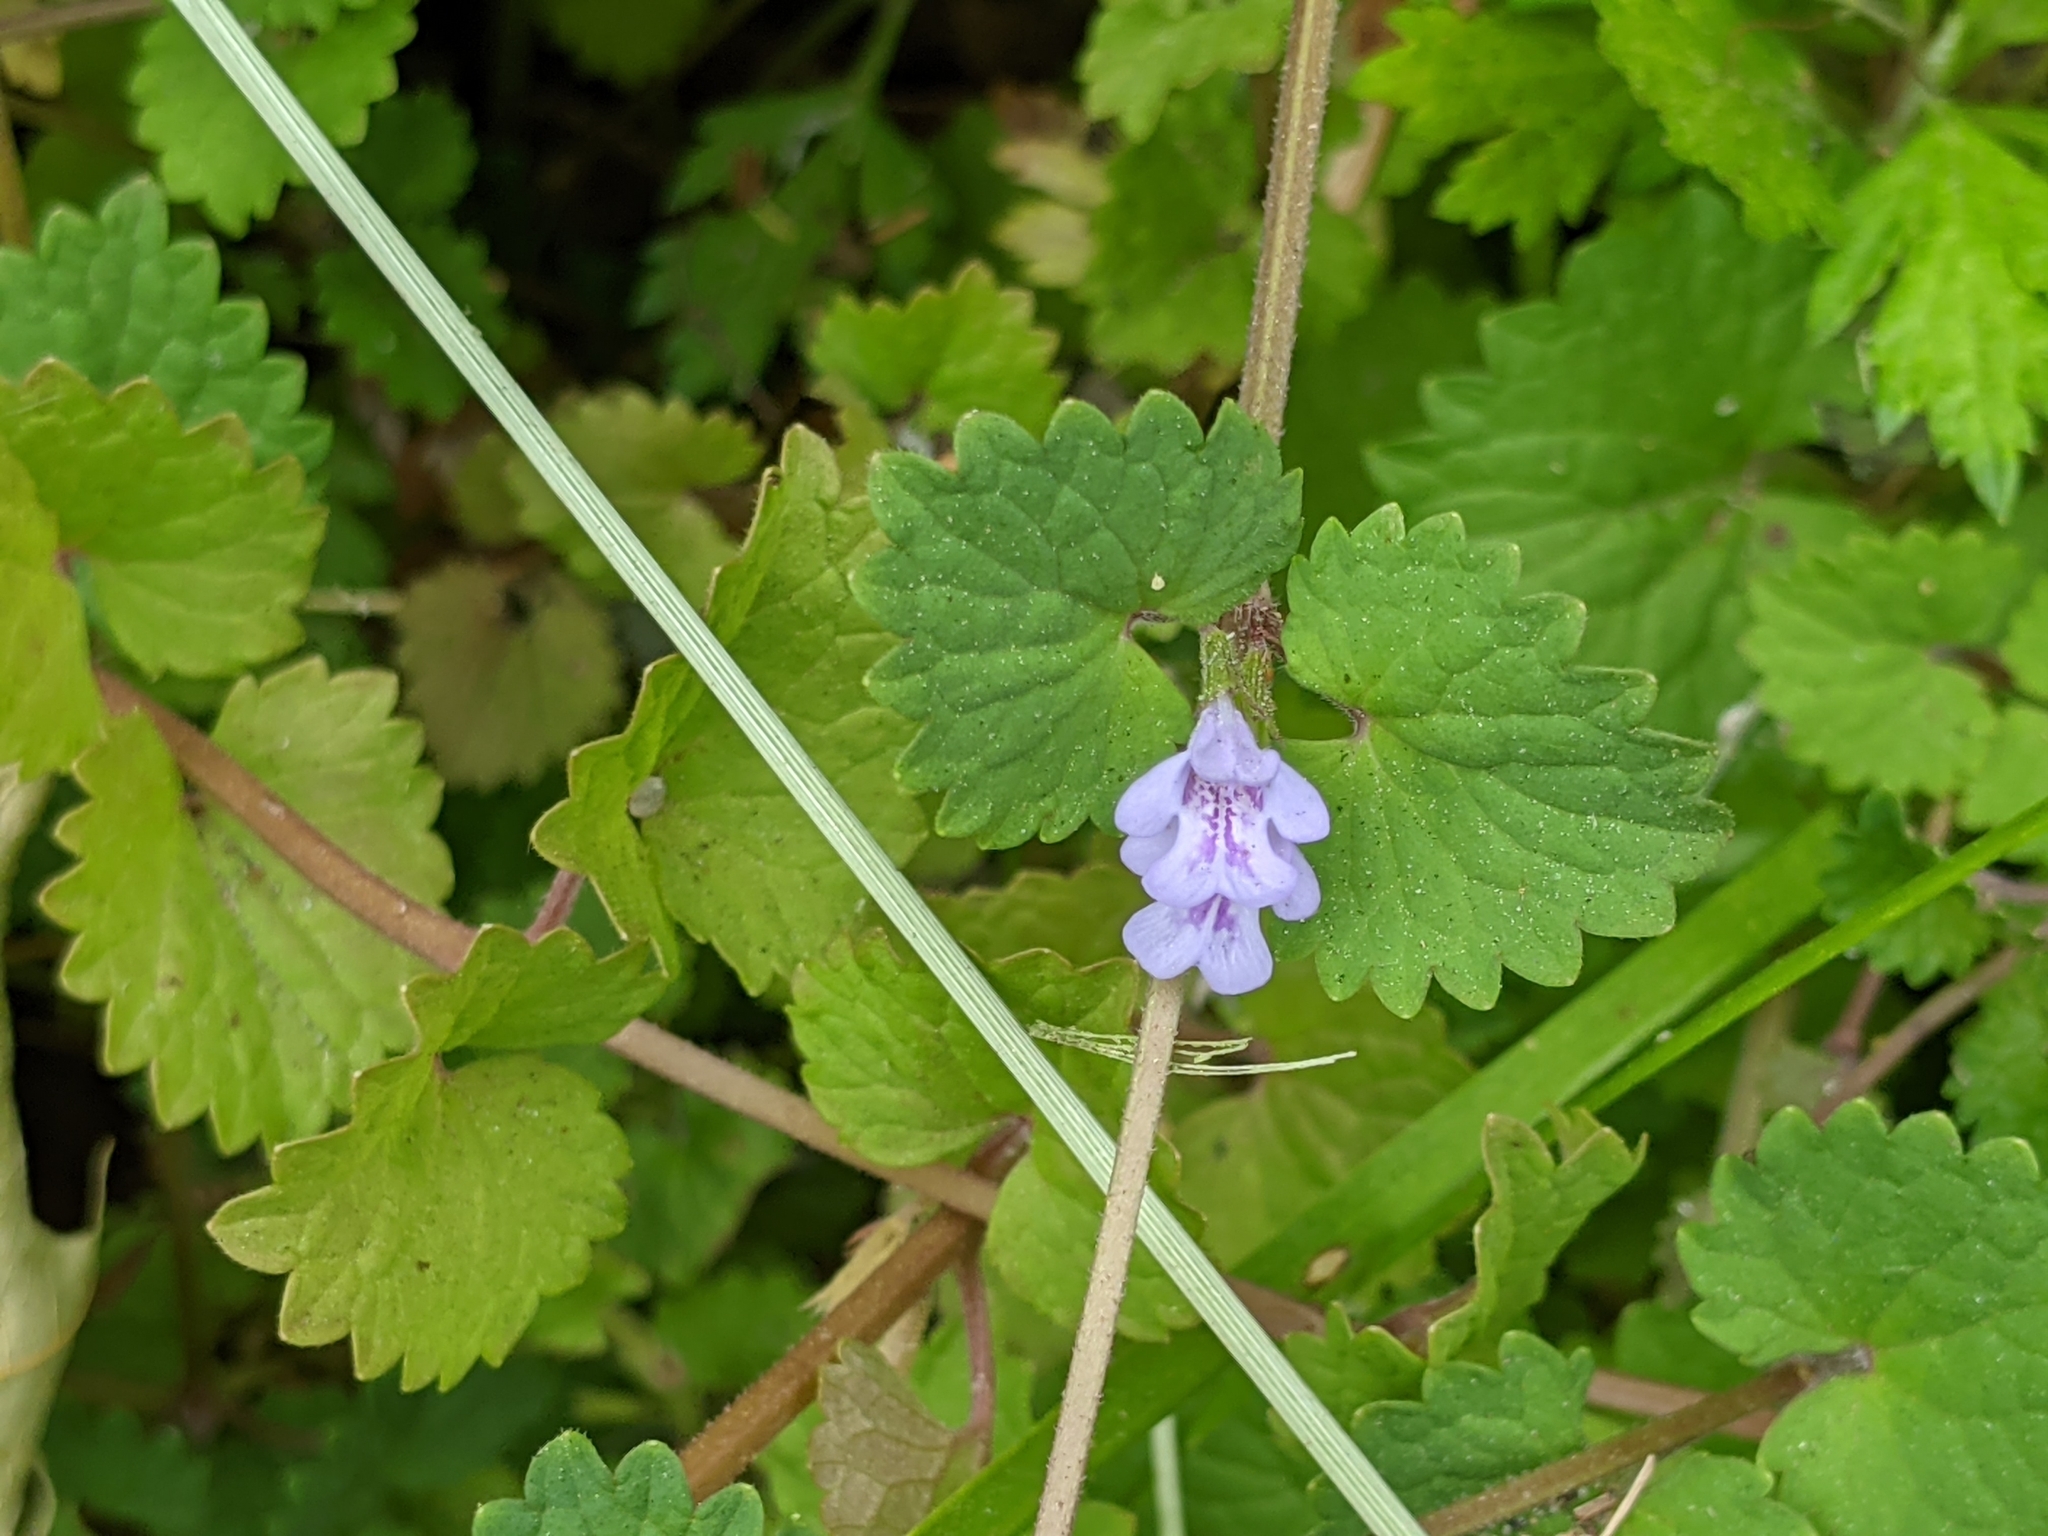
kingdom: Plantae
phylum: Tracheophyta
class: Magnoliopsida
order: Lamiales
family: Lamiaceae
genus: Glechoma
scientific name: Glechoma hederacea
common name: Ground ivy
